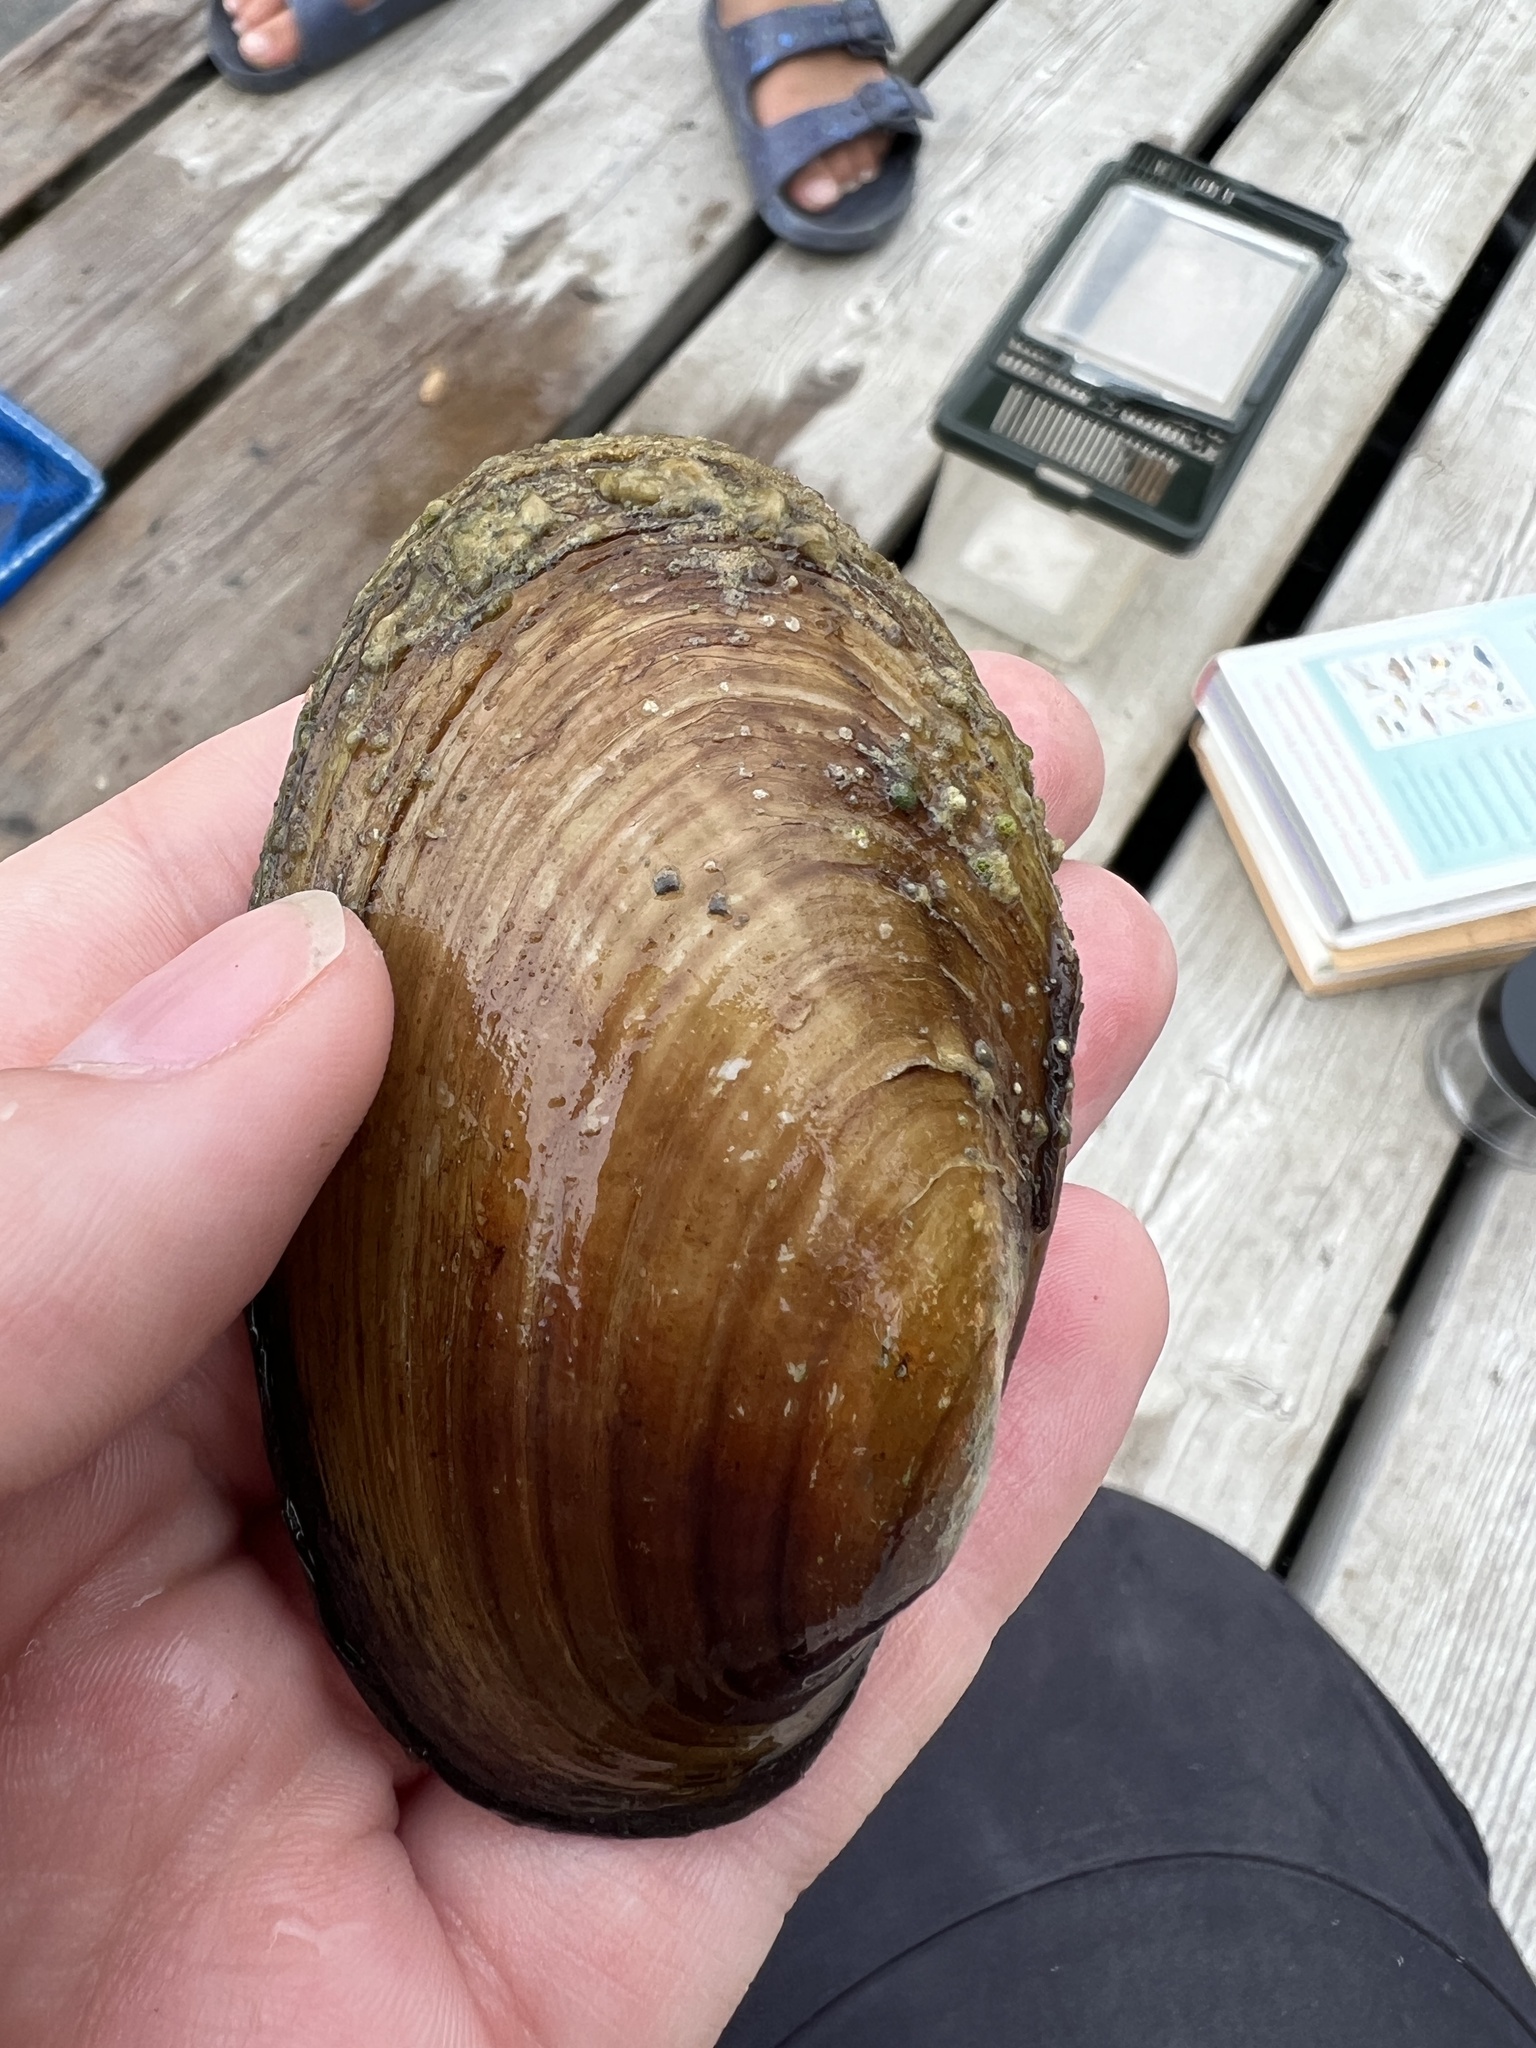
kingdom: Animalia
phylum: Mollusca
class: Bivalvia
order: Unionida
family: Unionidae
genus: Lampsilis
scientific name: Lampsilis siliquoidea
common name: Fatmucket
